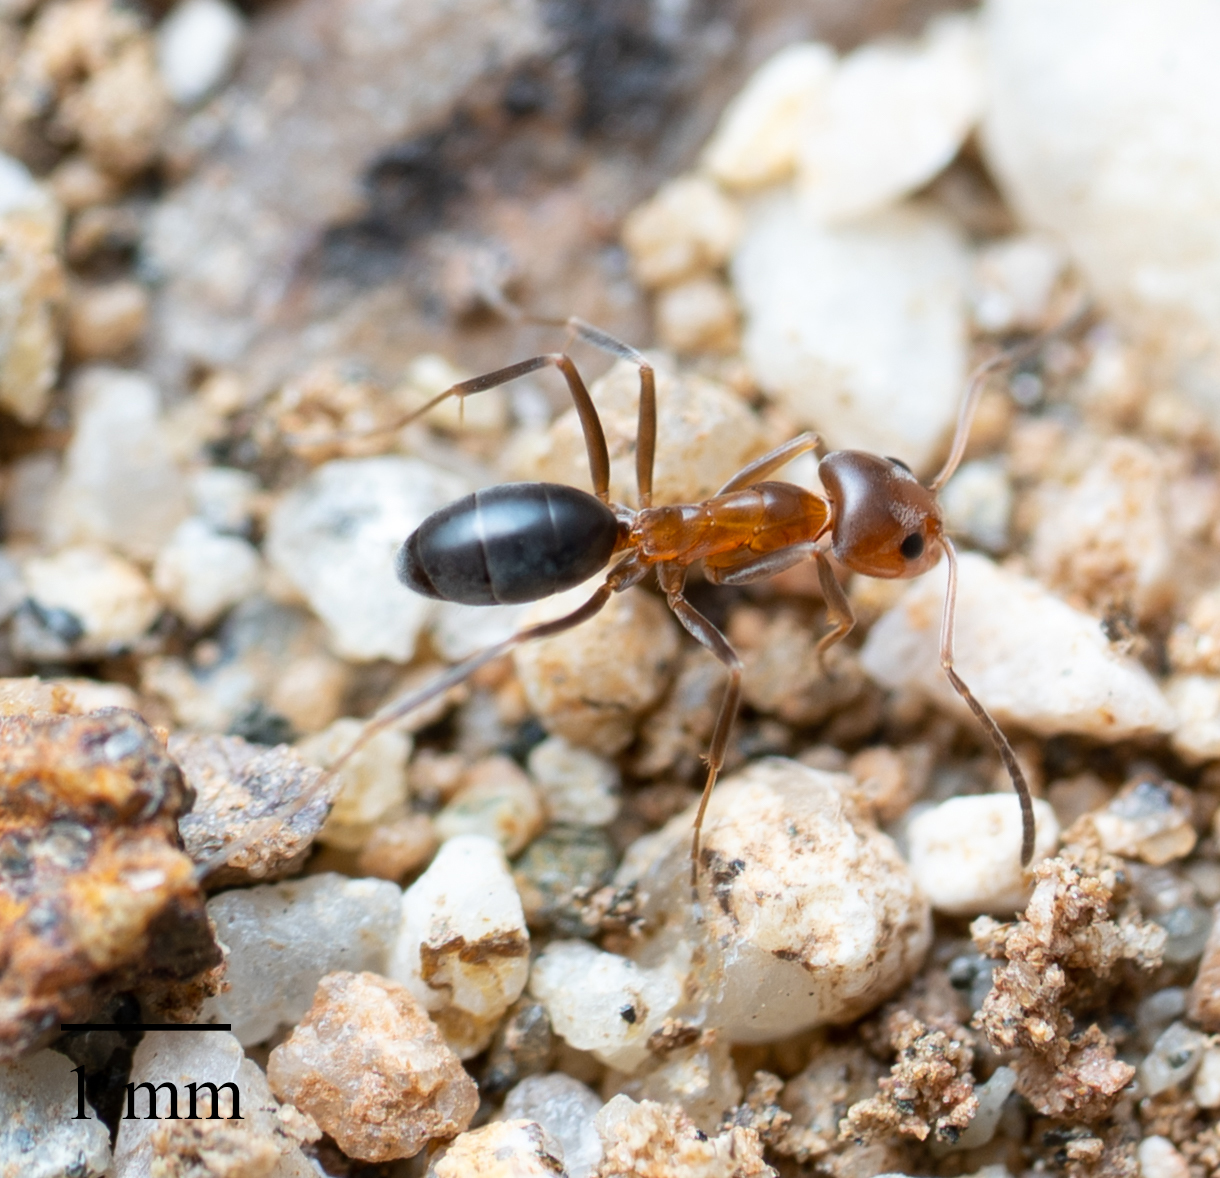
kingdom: Animalia
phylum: Arthropoda
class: Insecta
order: Hymenoptera
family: Formicidae
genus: Dorymyrmex
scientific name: Dorymyrmex bicolor
